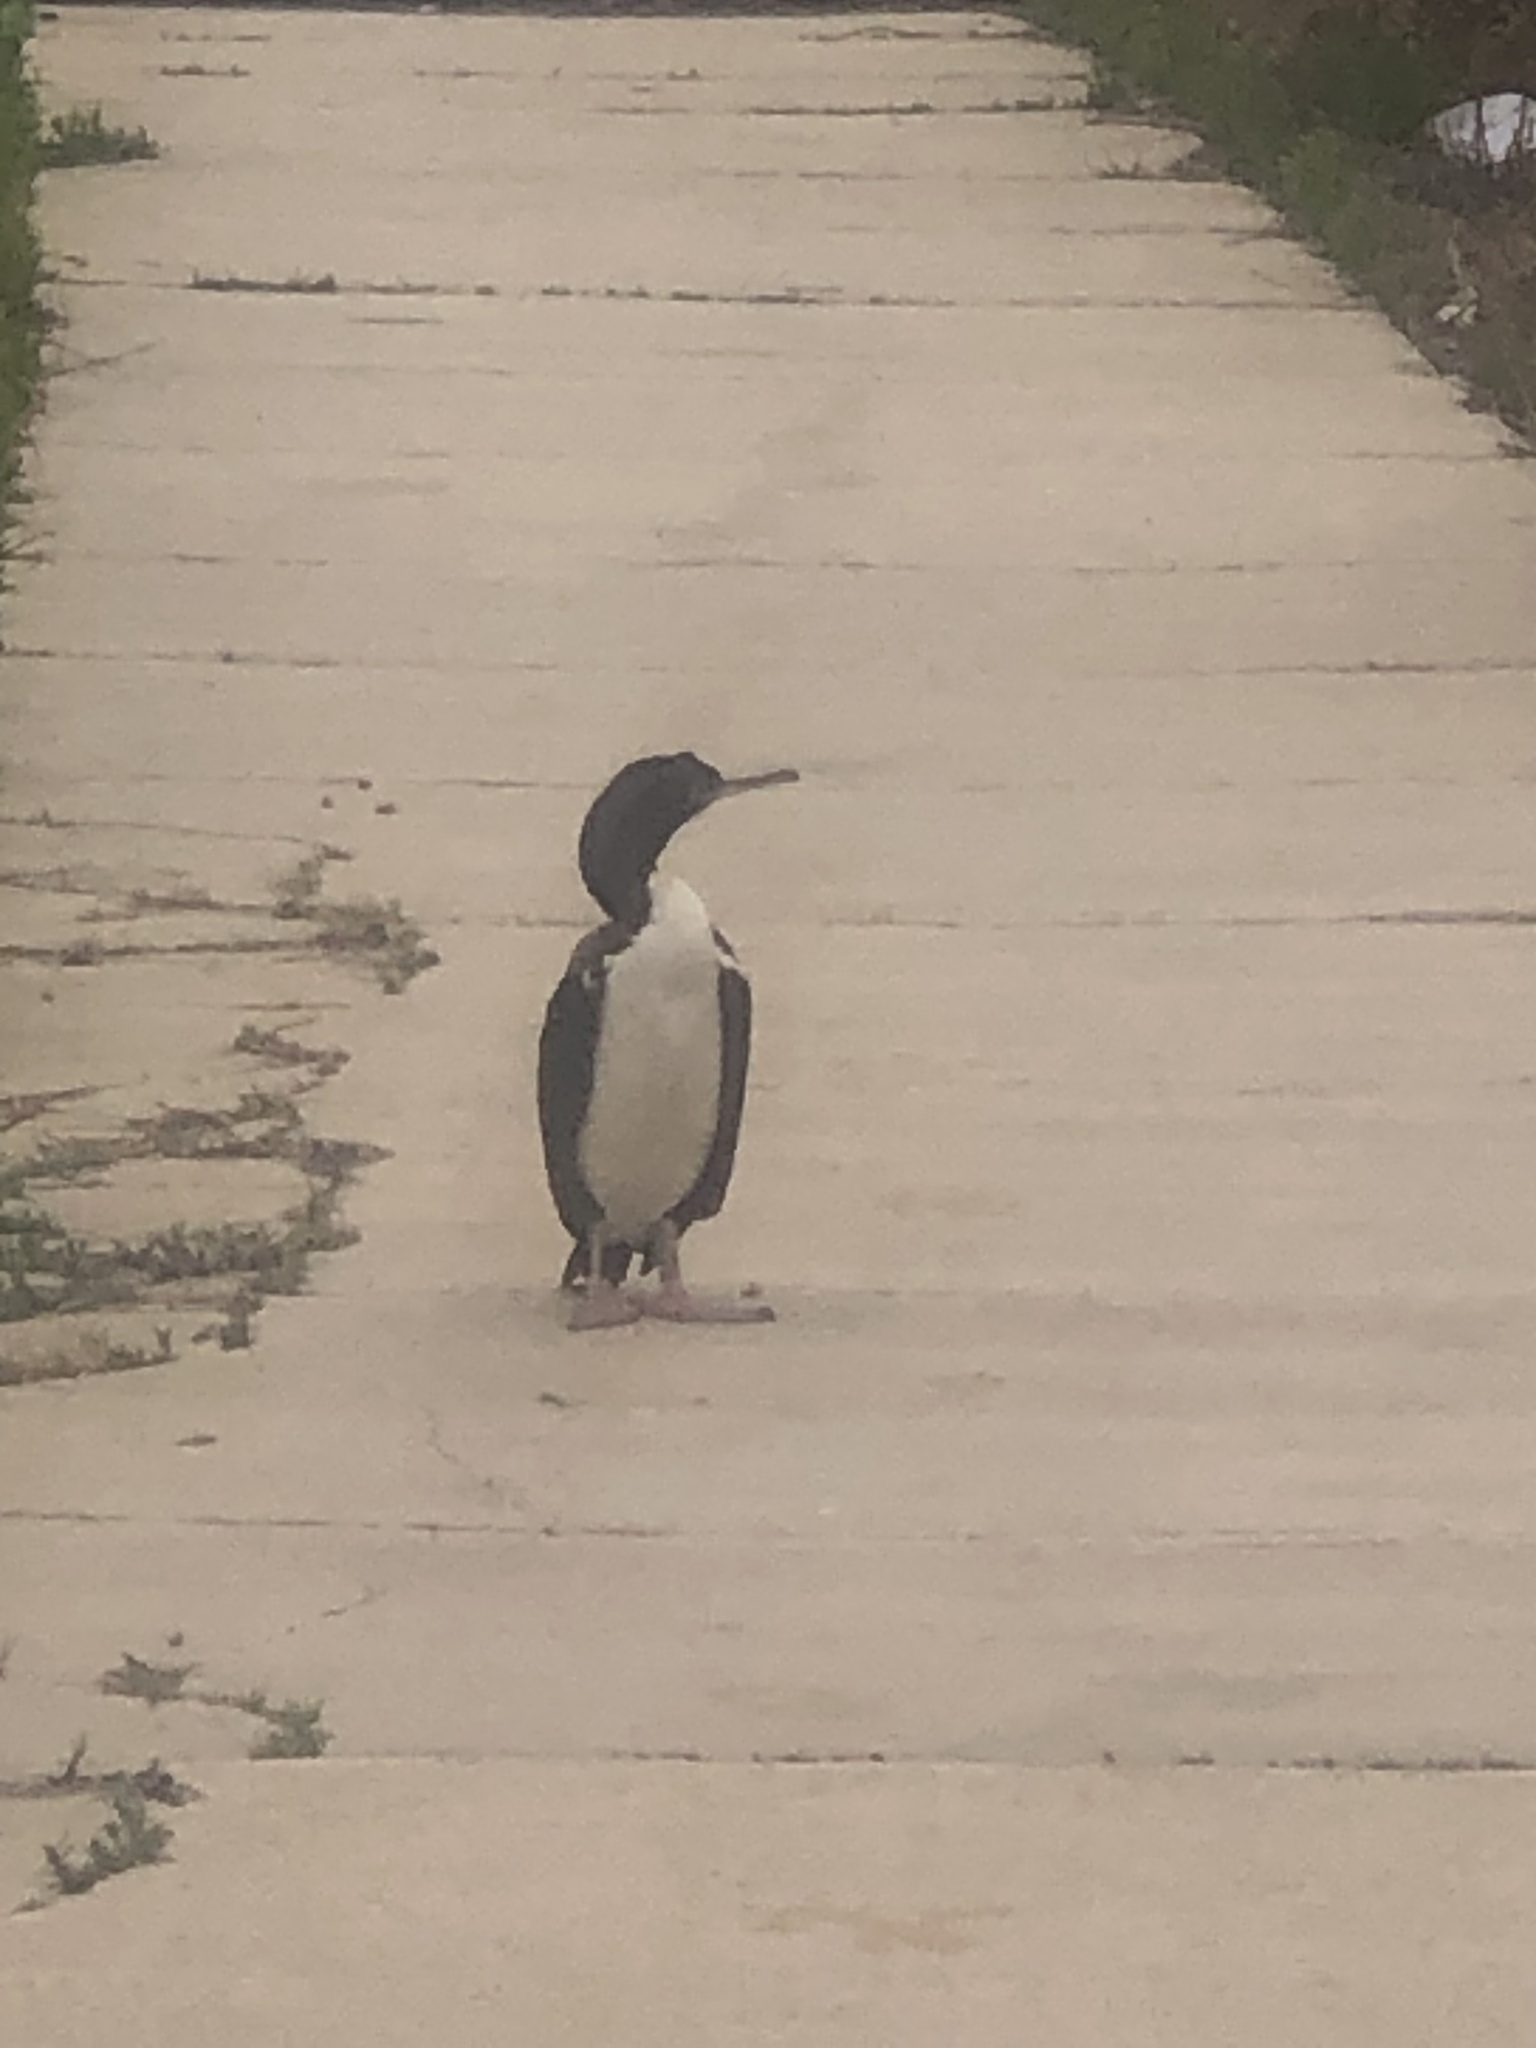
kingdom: Animalia
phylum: Chordata
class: Aves
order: Suliformes
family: Phalacrocoracidae
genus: Leucocarbo
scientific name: Leucocarbo bougainvillii
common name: Guanay cormorant
